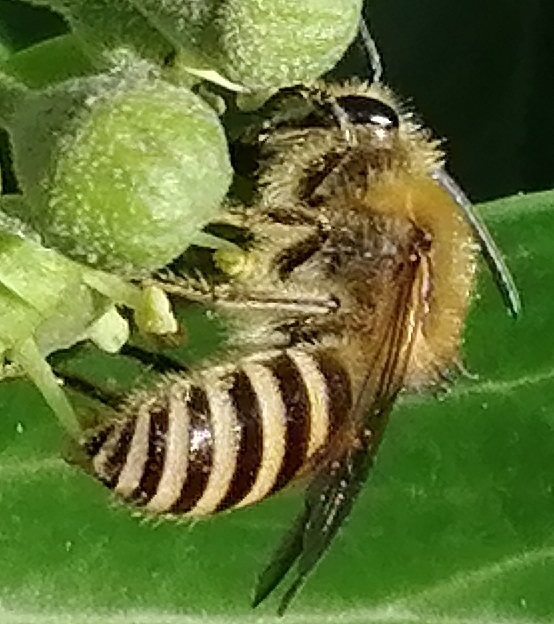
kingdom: Animalia
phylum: Arthropoda
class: Insecta
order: Hymenoptera
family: Colletidae
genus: Colletes
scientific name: Colletes hederae
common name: Ivy bee
